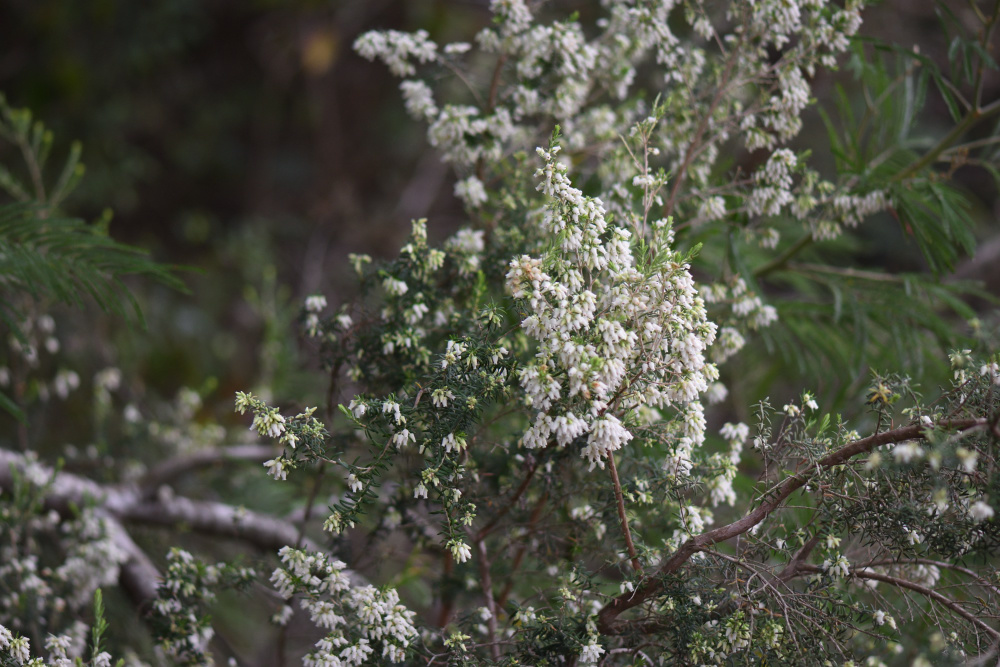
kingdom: Plantae
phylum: Tracheophyta
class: Magnoliopsida
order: Ericales
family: Ericaceae
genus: Erica
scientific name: Erica caffra
